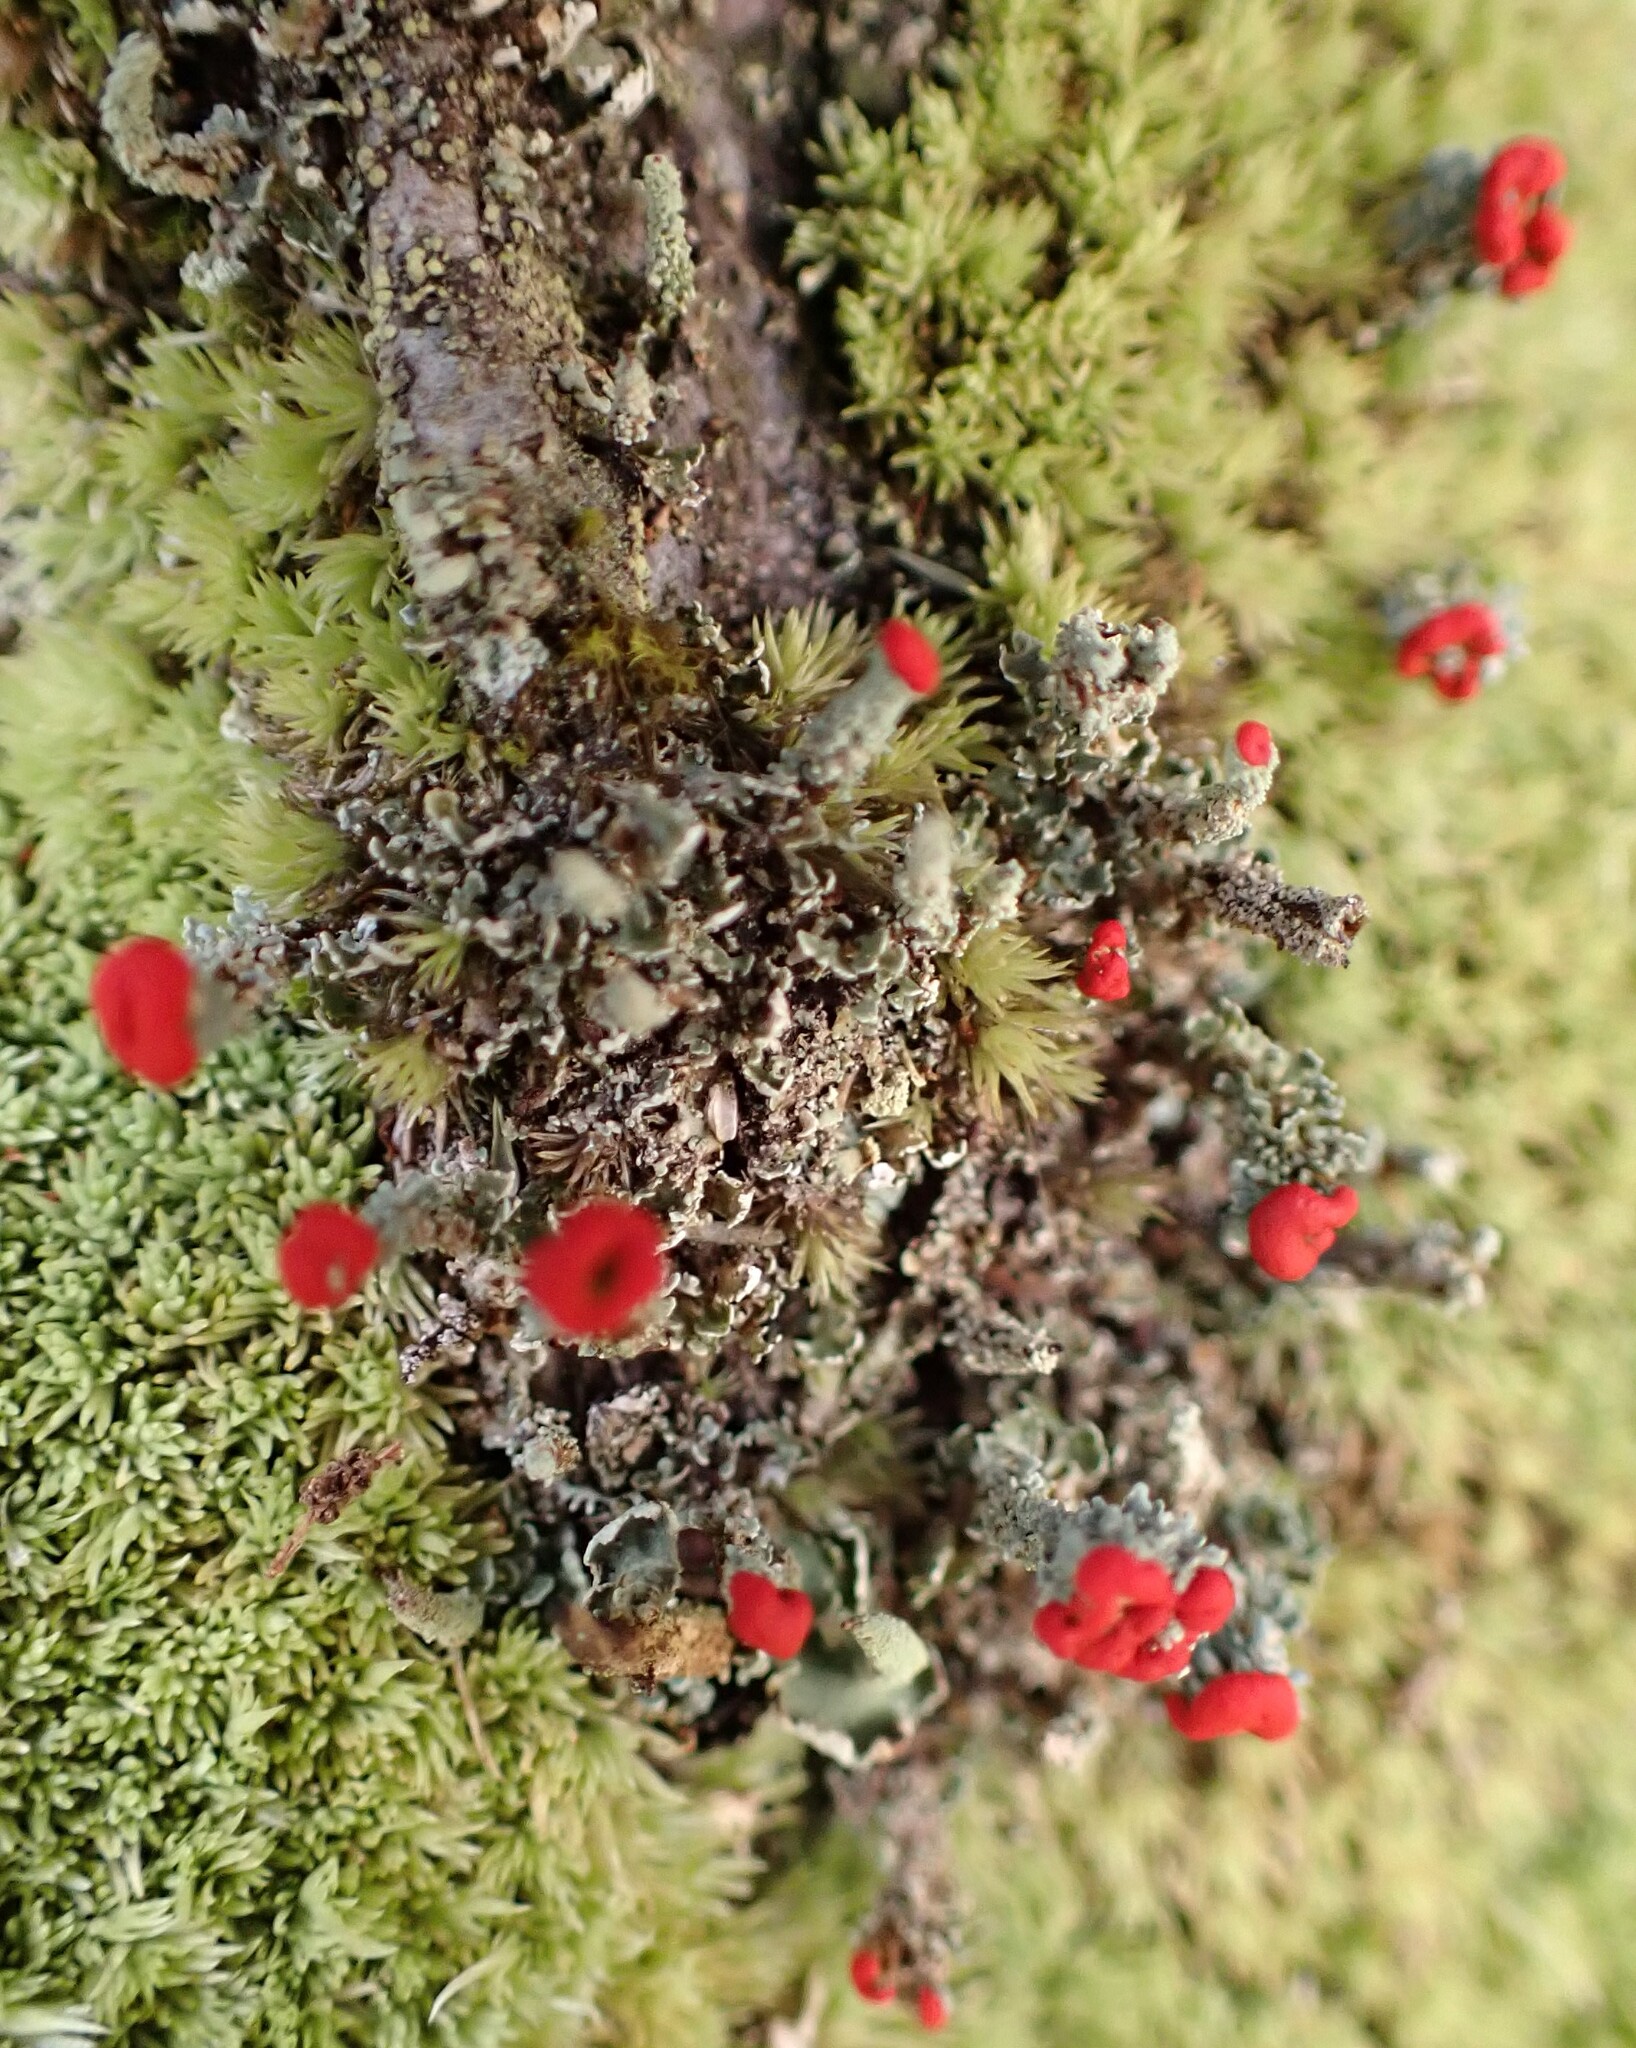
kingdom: Fungi
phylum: Ascomycota
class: Lecanoromycetes
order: Lecanorales
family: Cladoniaceae
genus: Cladonia
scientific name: Cladonia didyma
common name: Southern soldiers
